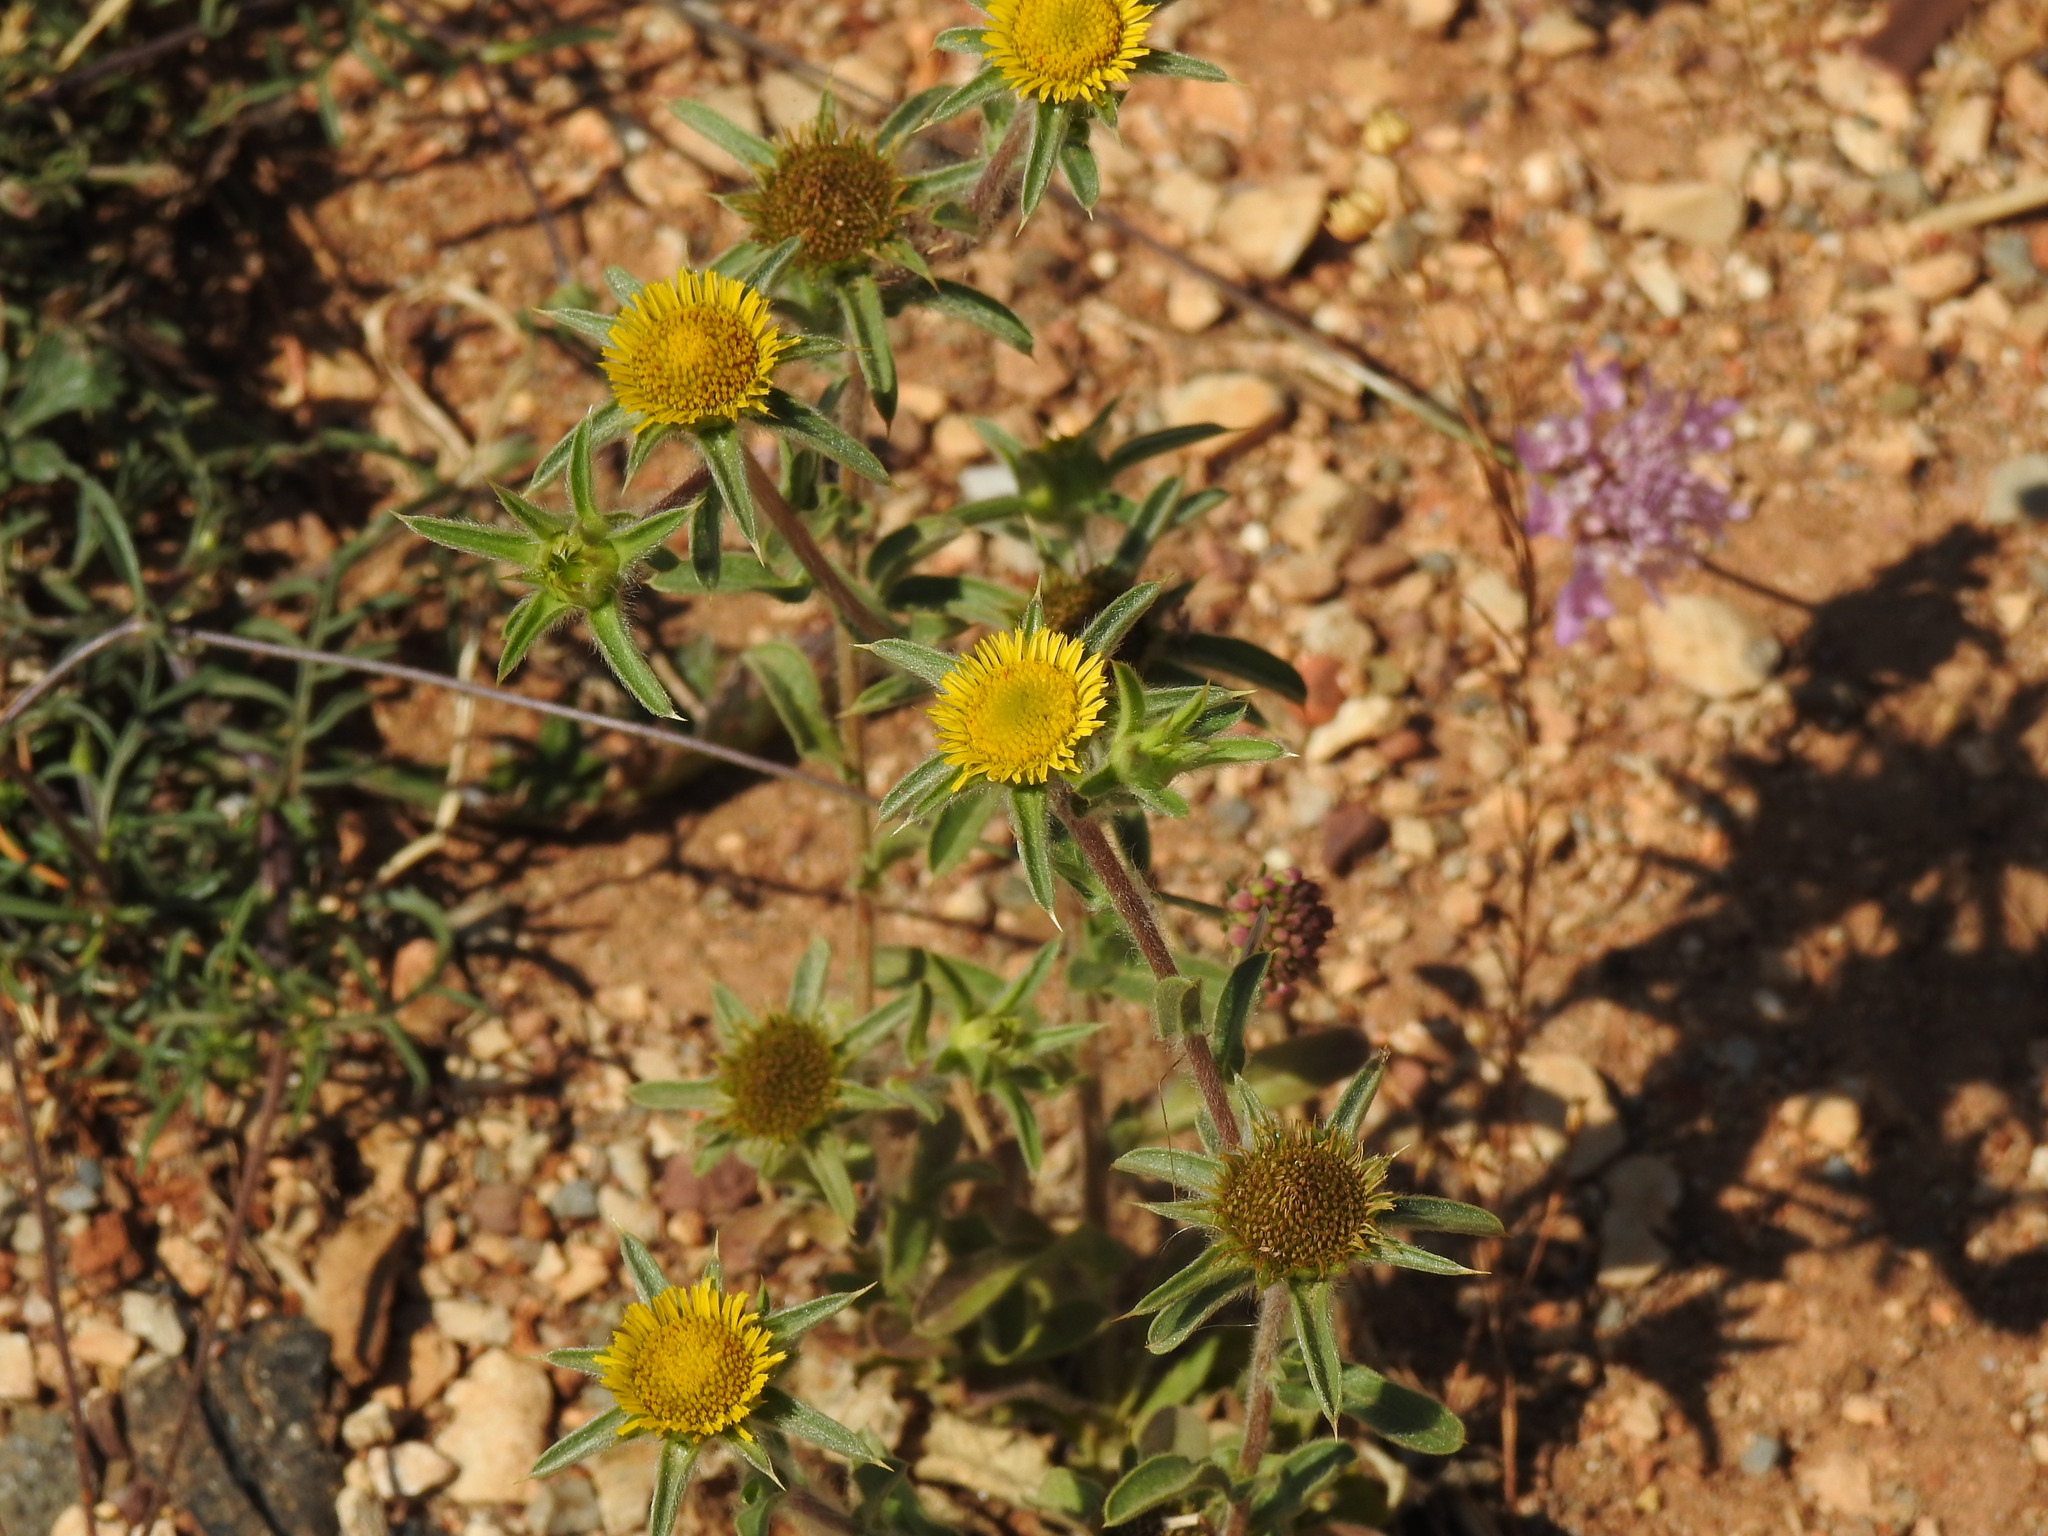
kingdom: Plantae
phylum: Tracheophyta
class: Magnoliopsida
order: Asterales
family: Asteraceae
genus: Pallenis
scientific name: Pallenis spinosa
